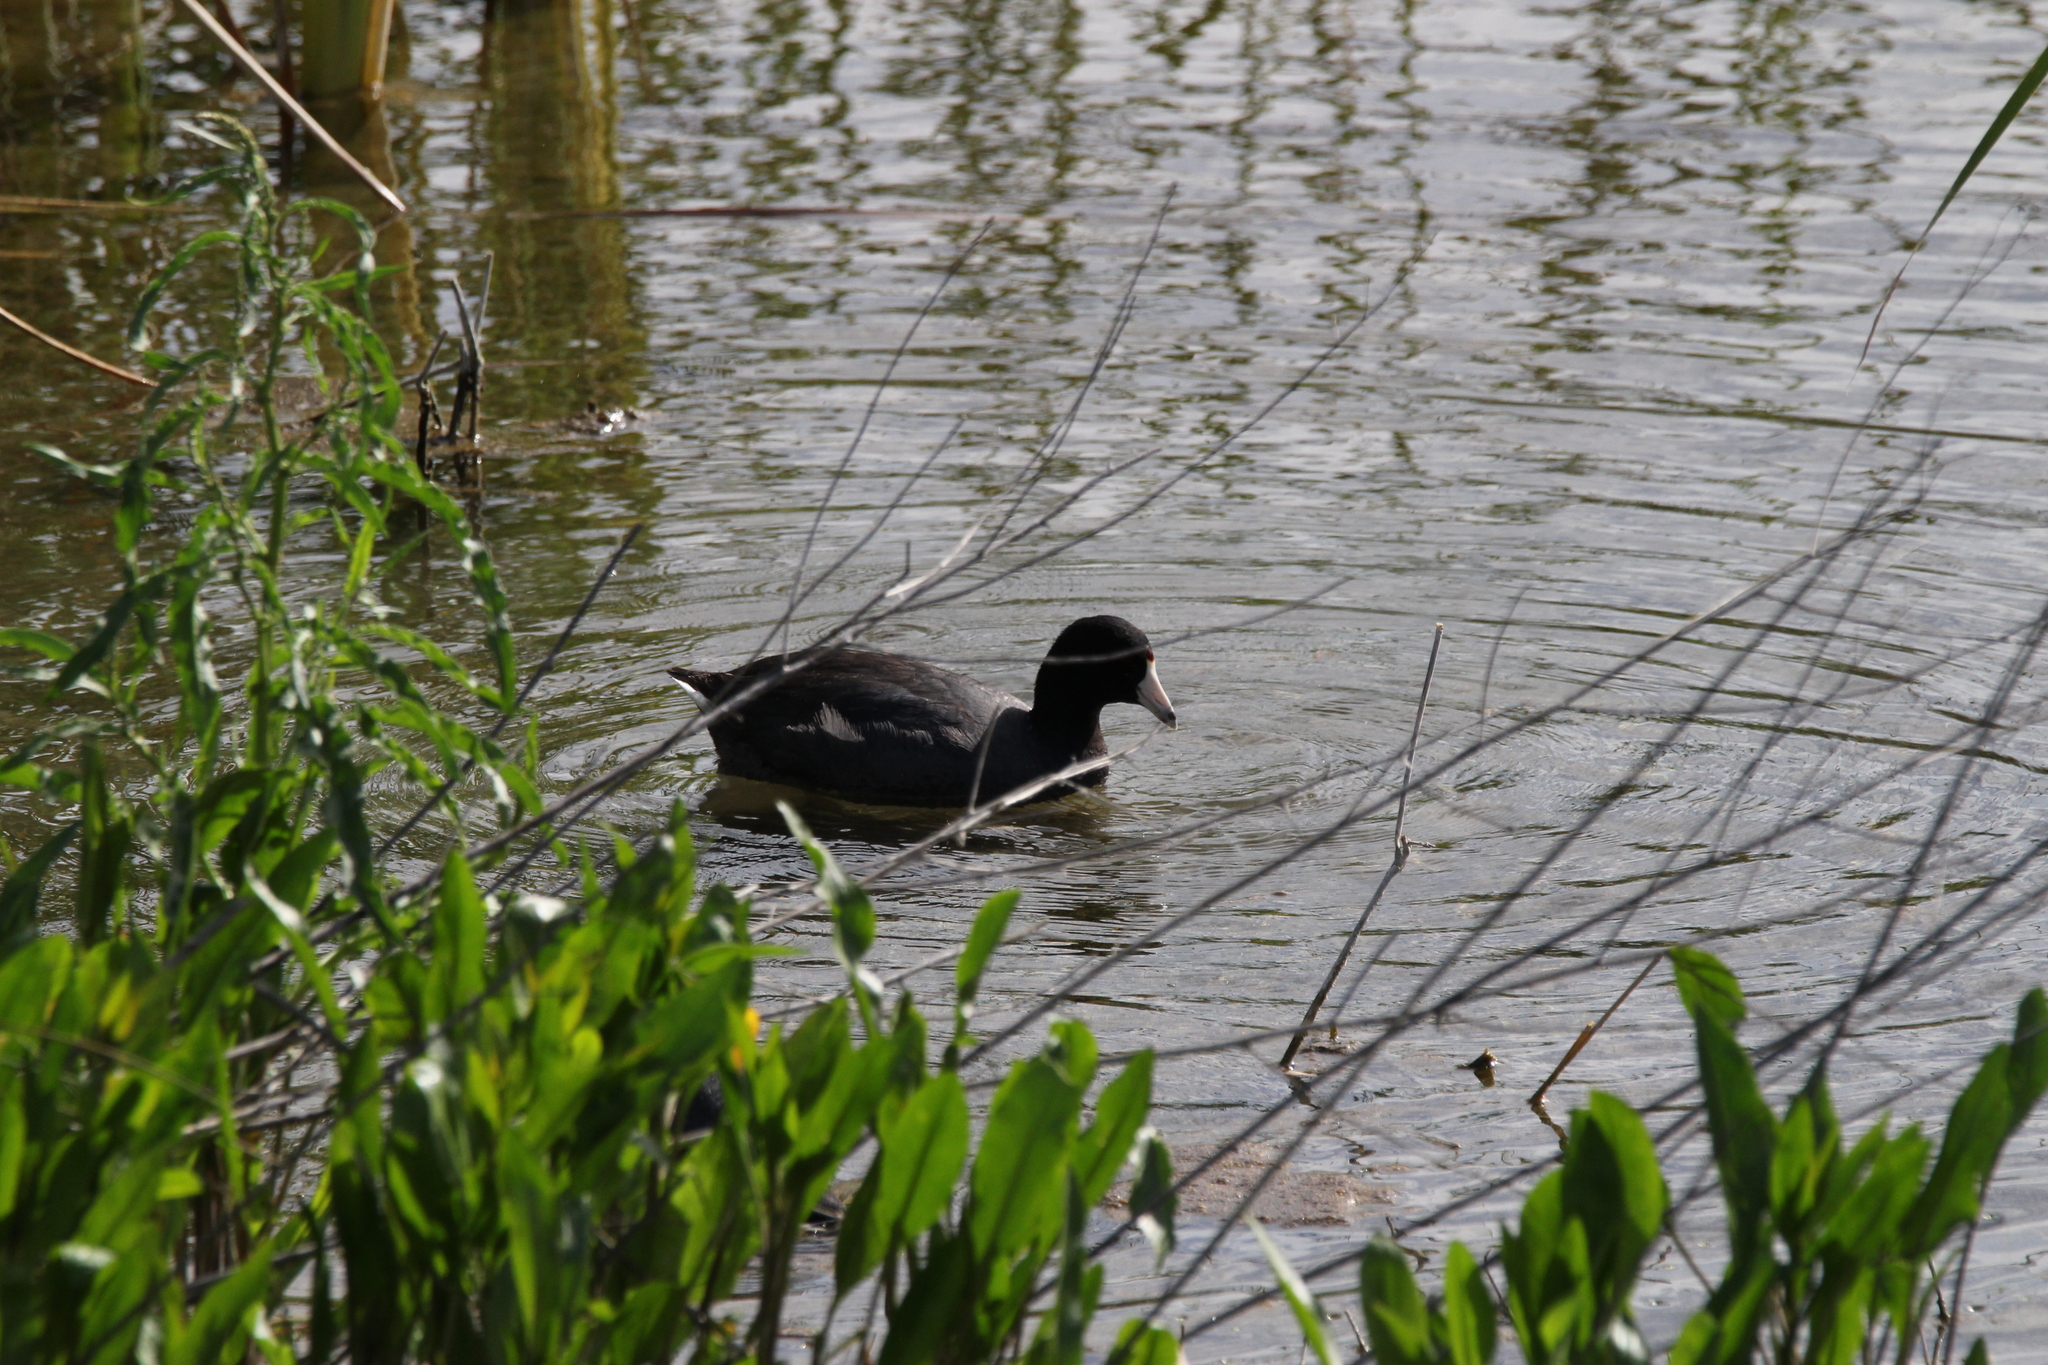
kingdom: Animalia
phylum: Chordata
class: Aves
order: Gruiformes
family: Rallidae
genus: Fulica
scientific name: Fulica americana
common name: American coot
